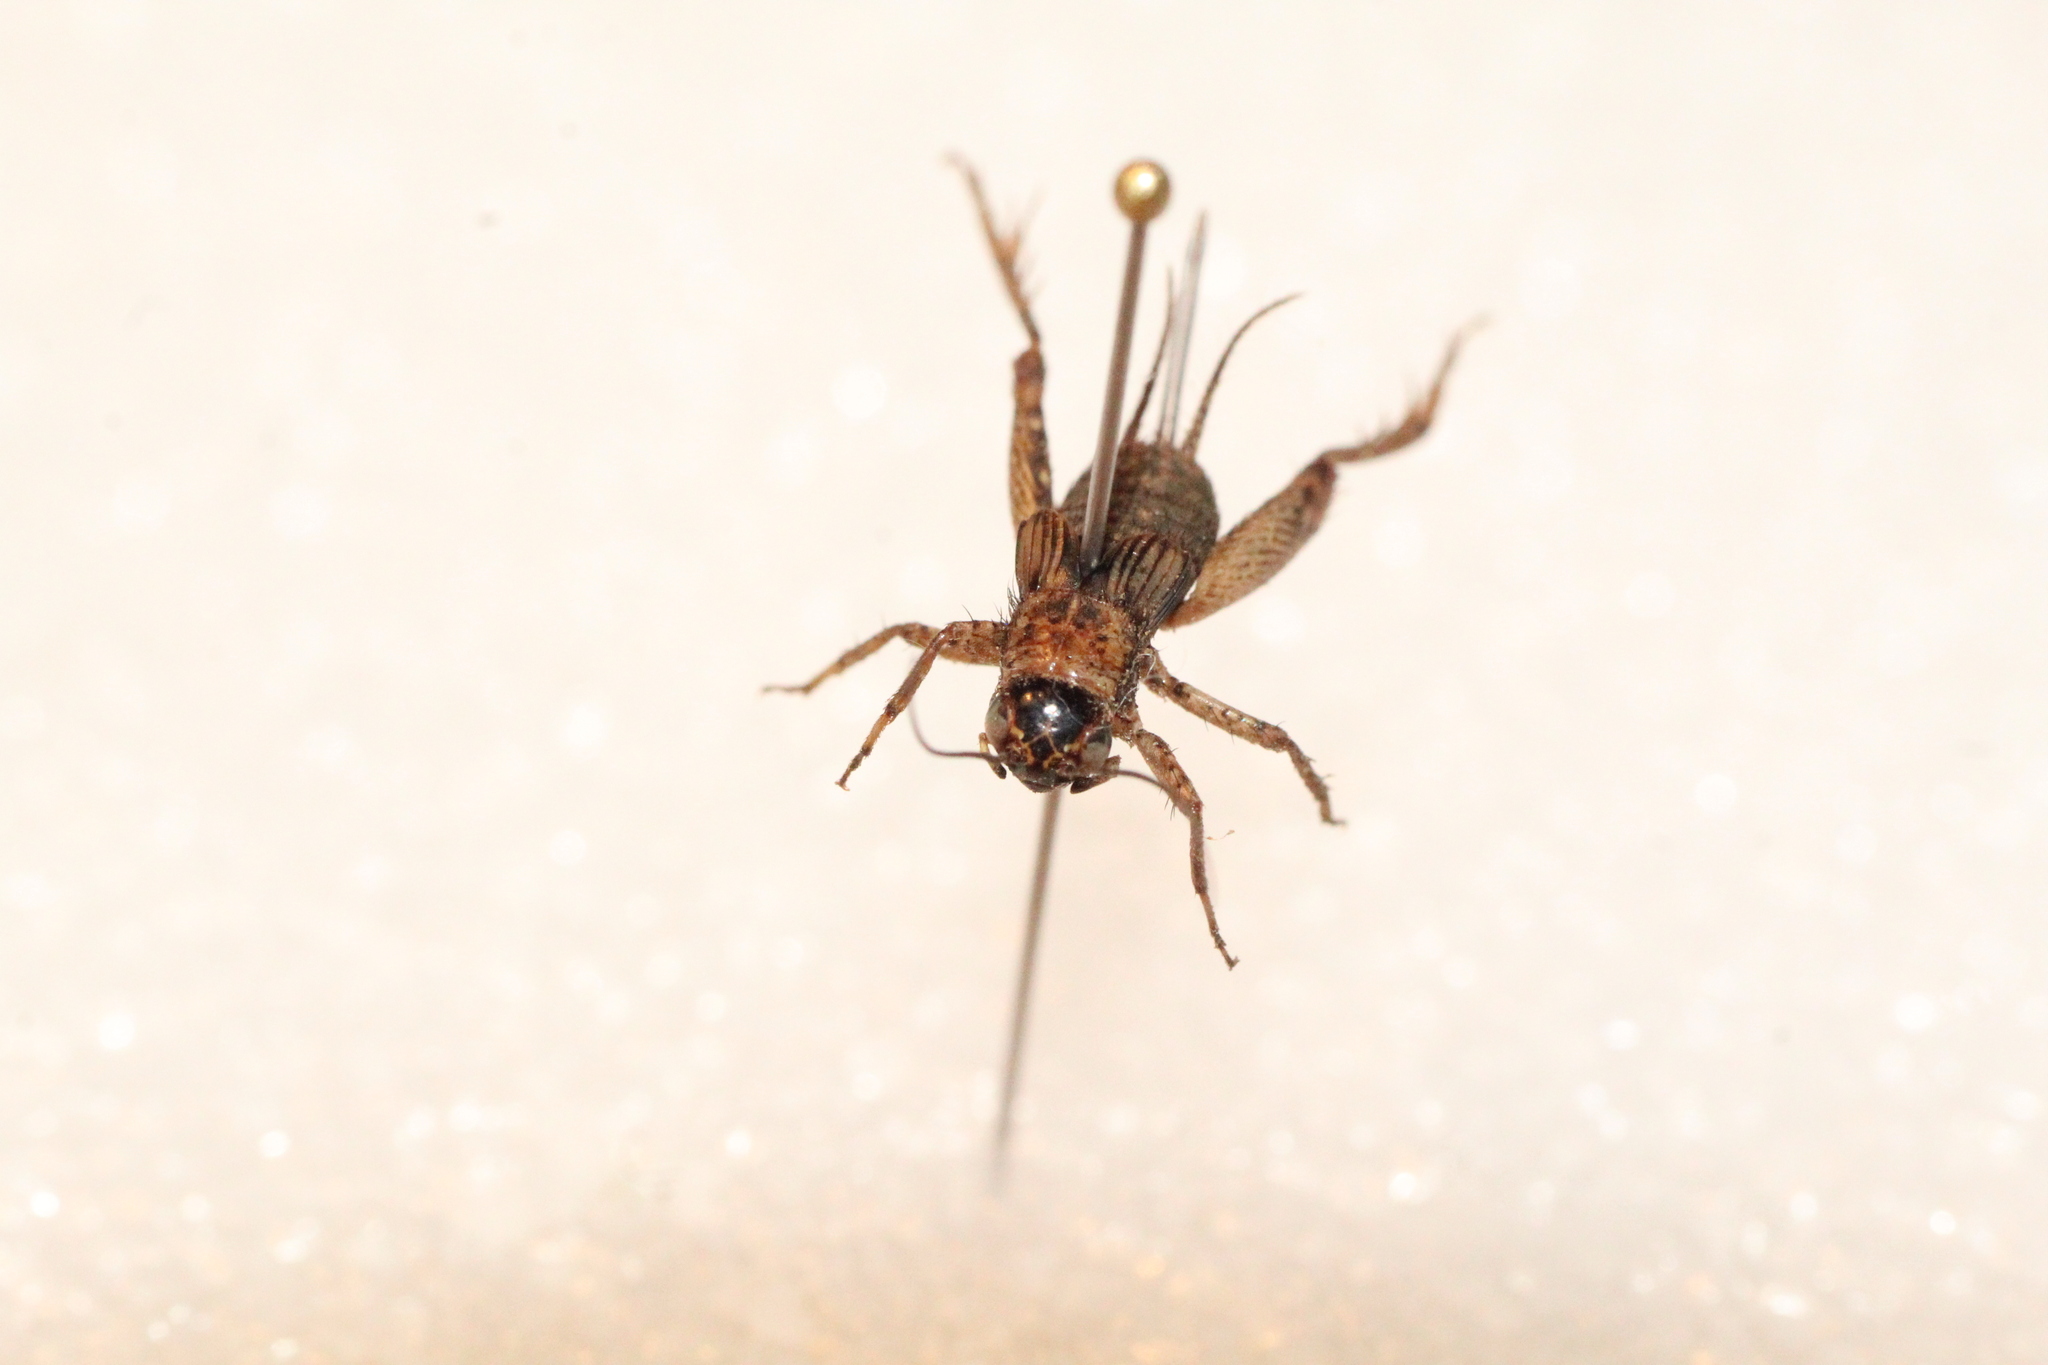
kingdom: Animalia
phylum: Arthropoda
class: Insecta
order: Orthoptera
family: Trigonidiidae
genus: Nemobius
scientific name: Nemobius sylvestris
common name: Wood-cricket
